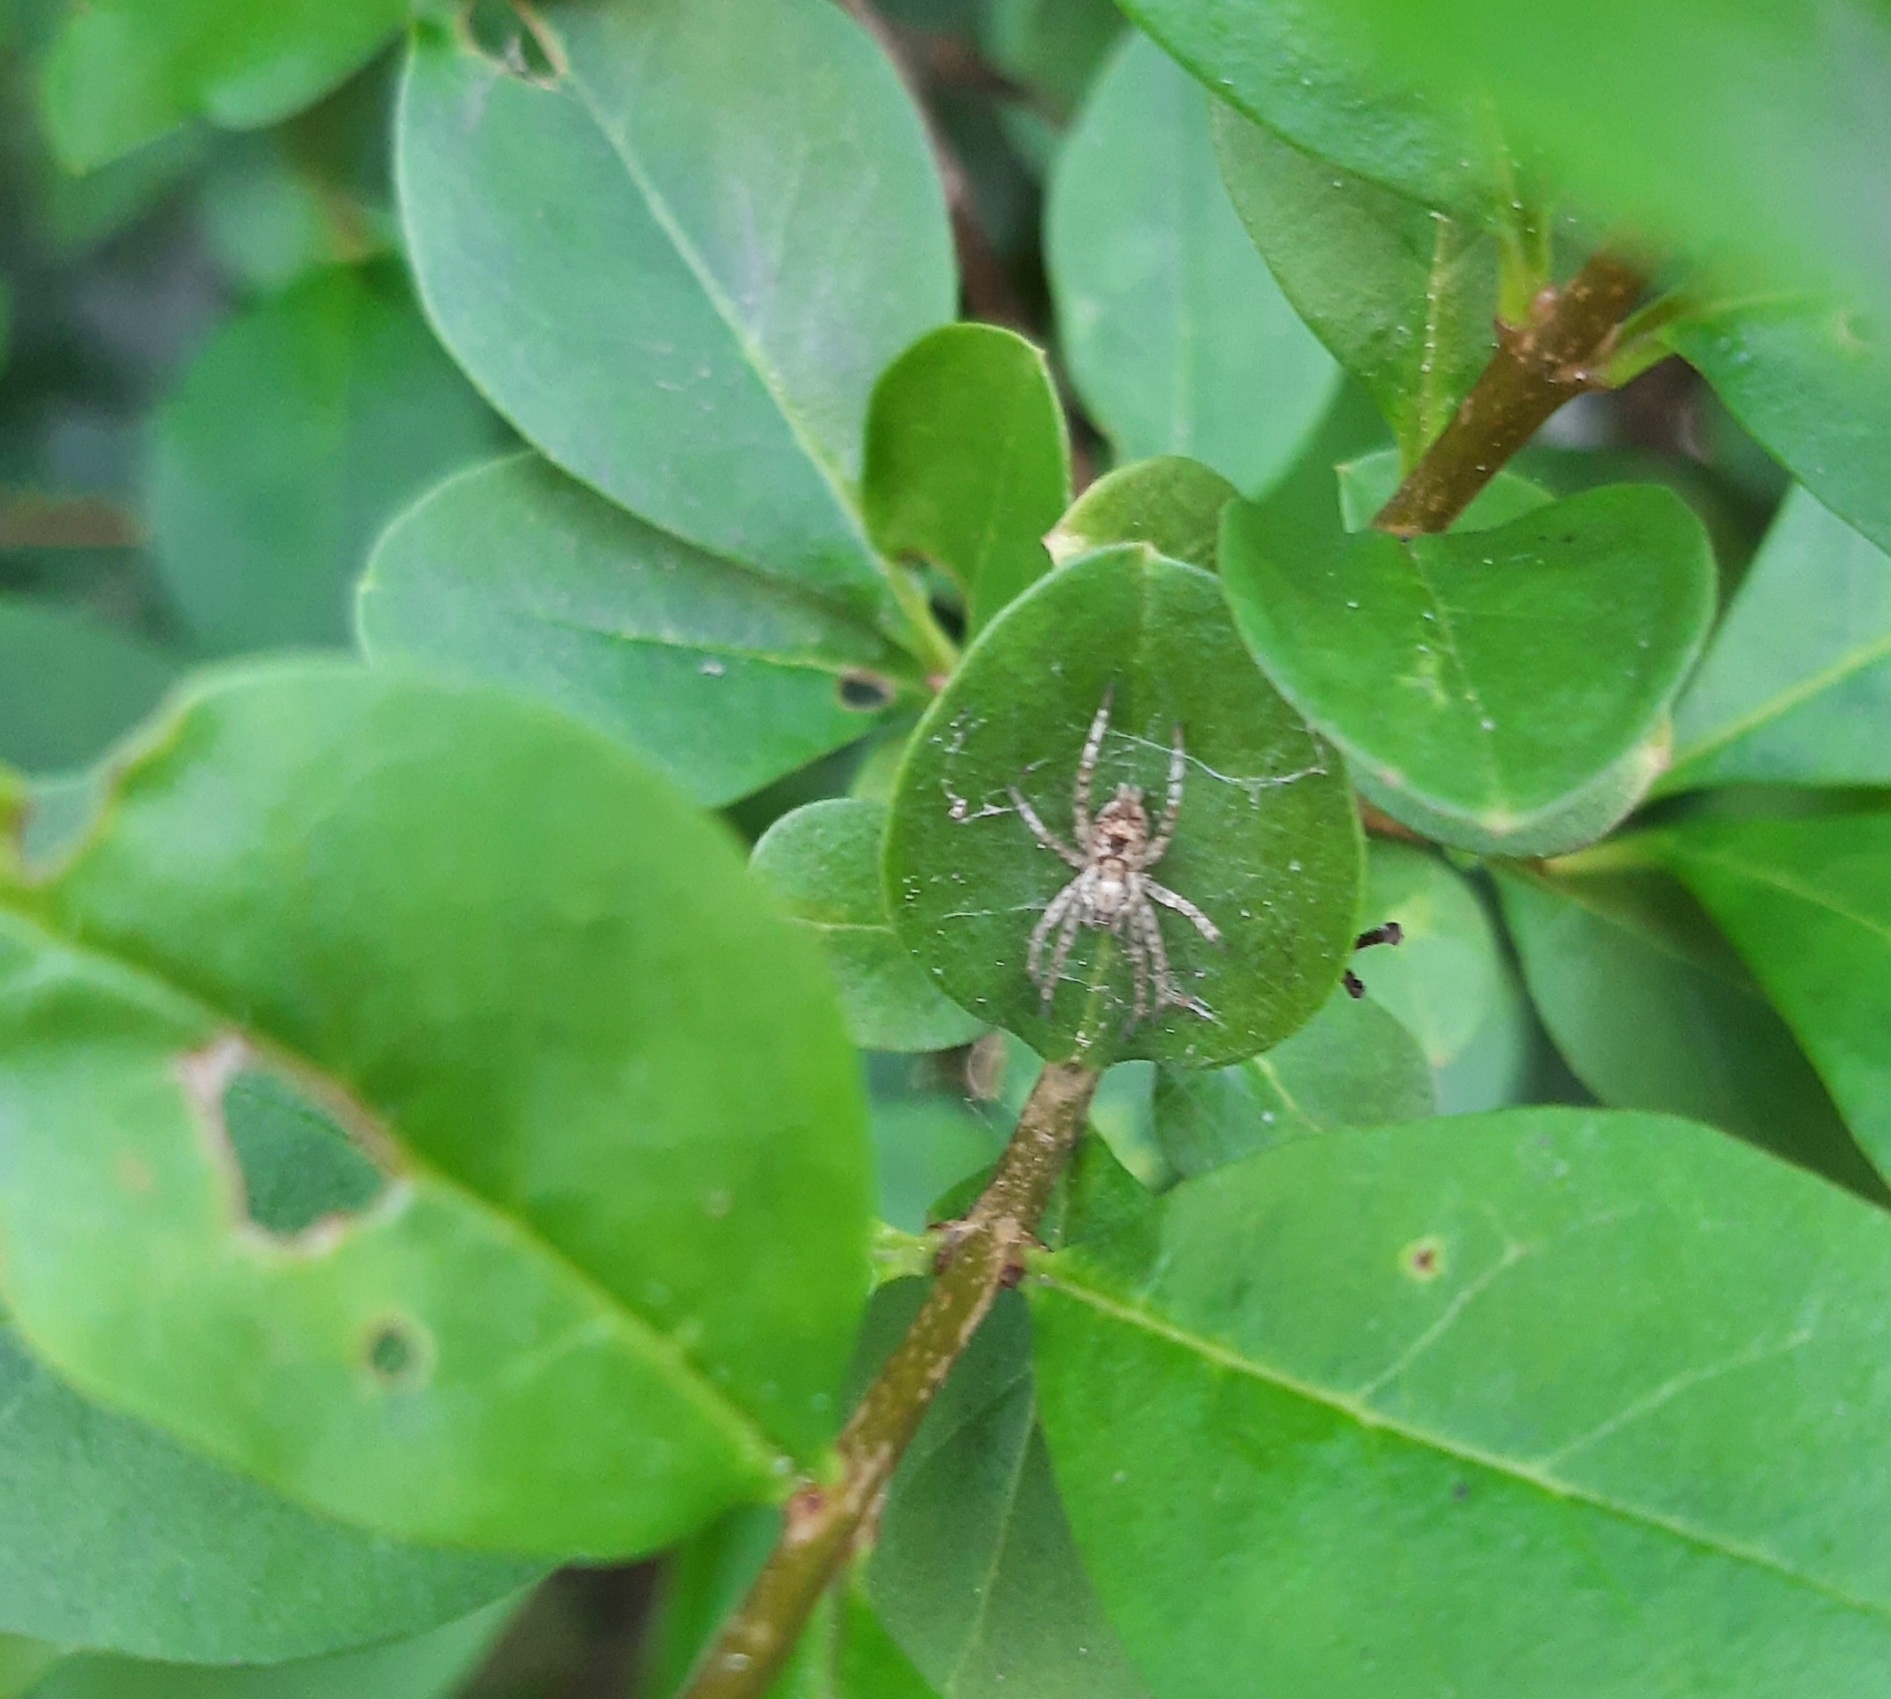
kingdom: Animalia
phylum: Arthropoda
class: Arachnida
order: Araneae
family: Anyphaenidae
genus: Anyphaena
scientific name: Anyphaena accentuata
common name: Buzzing spider
